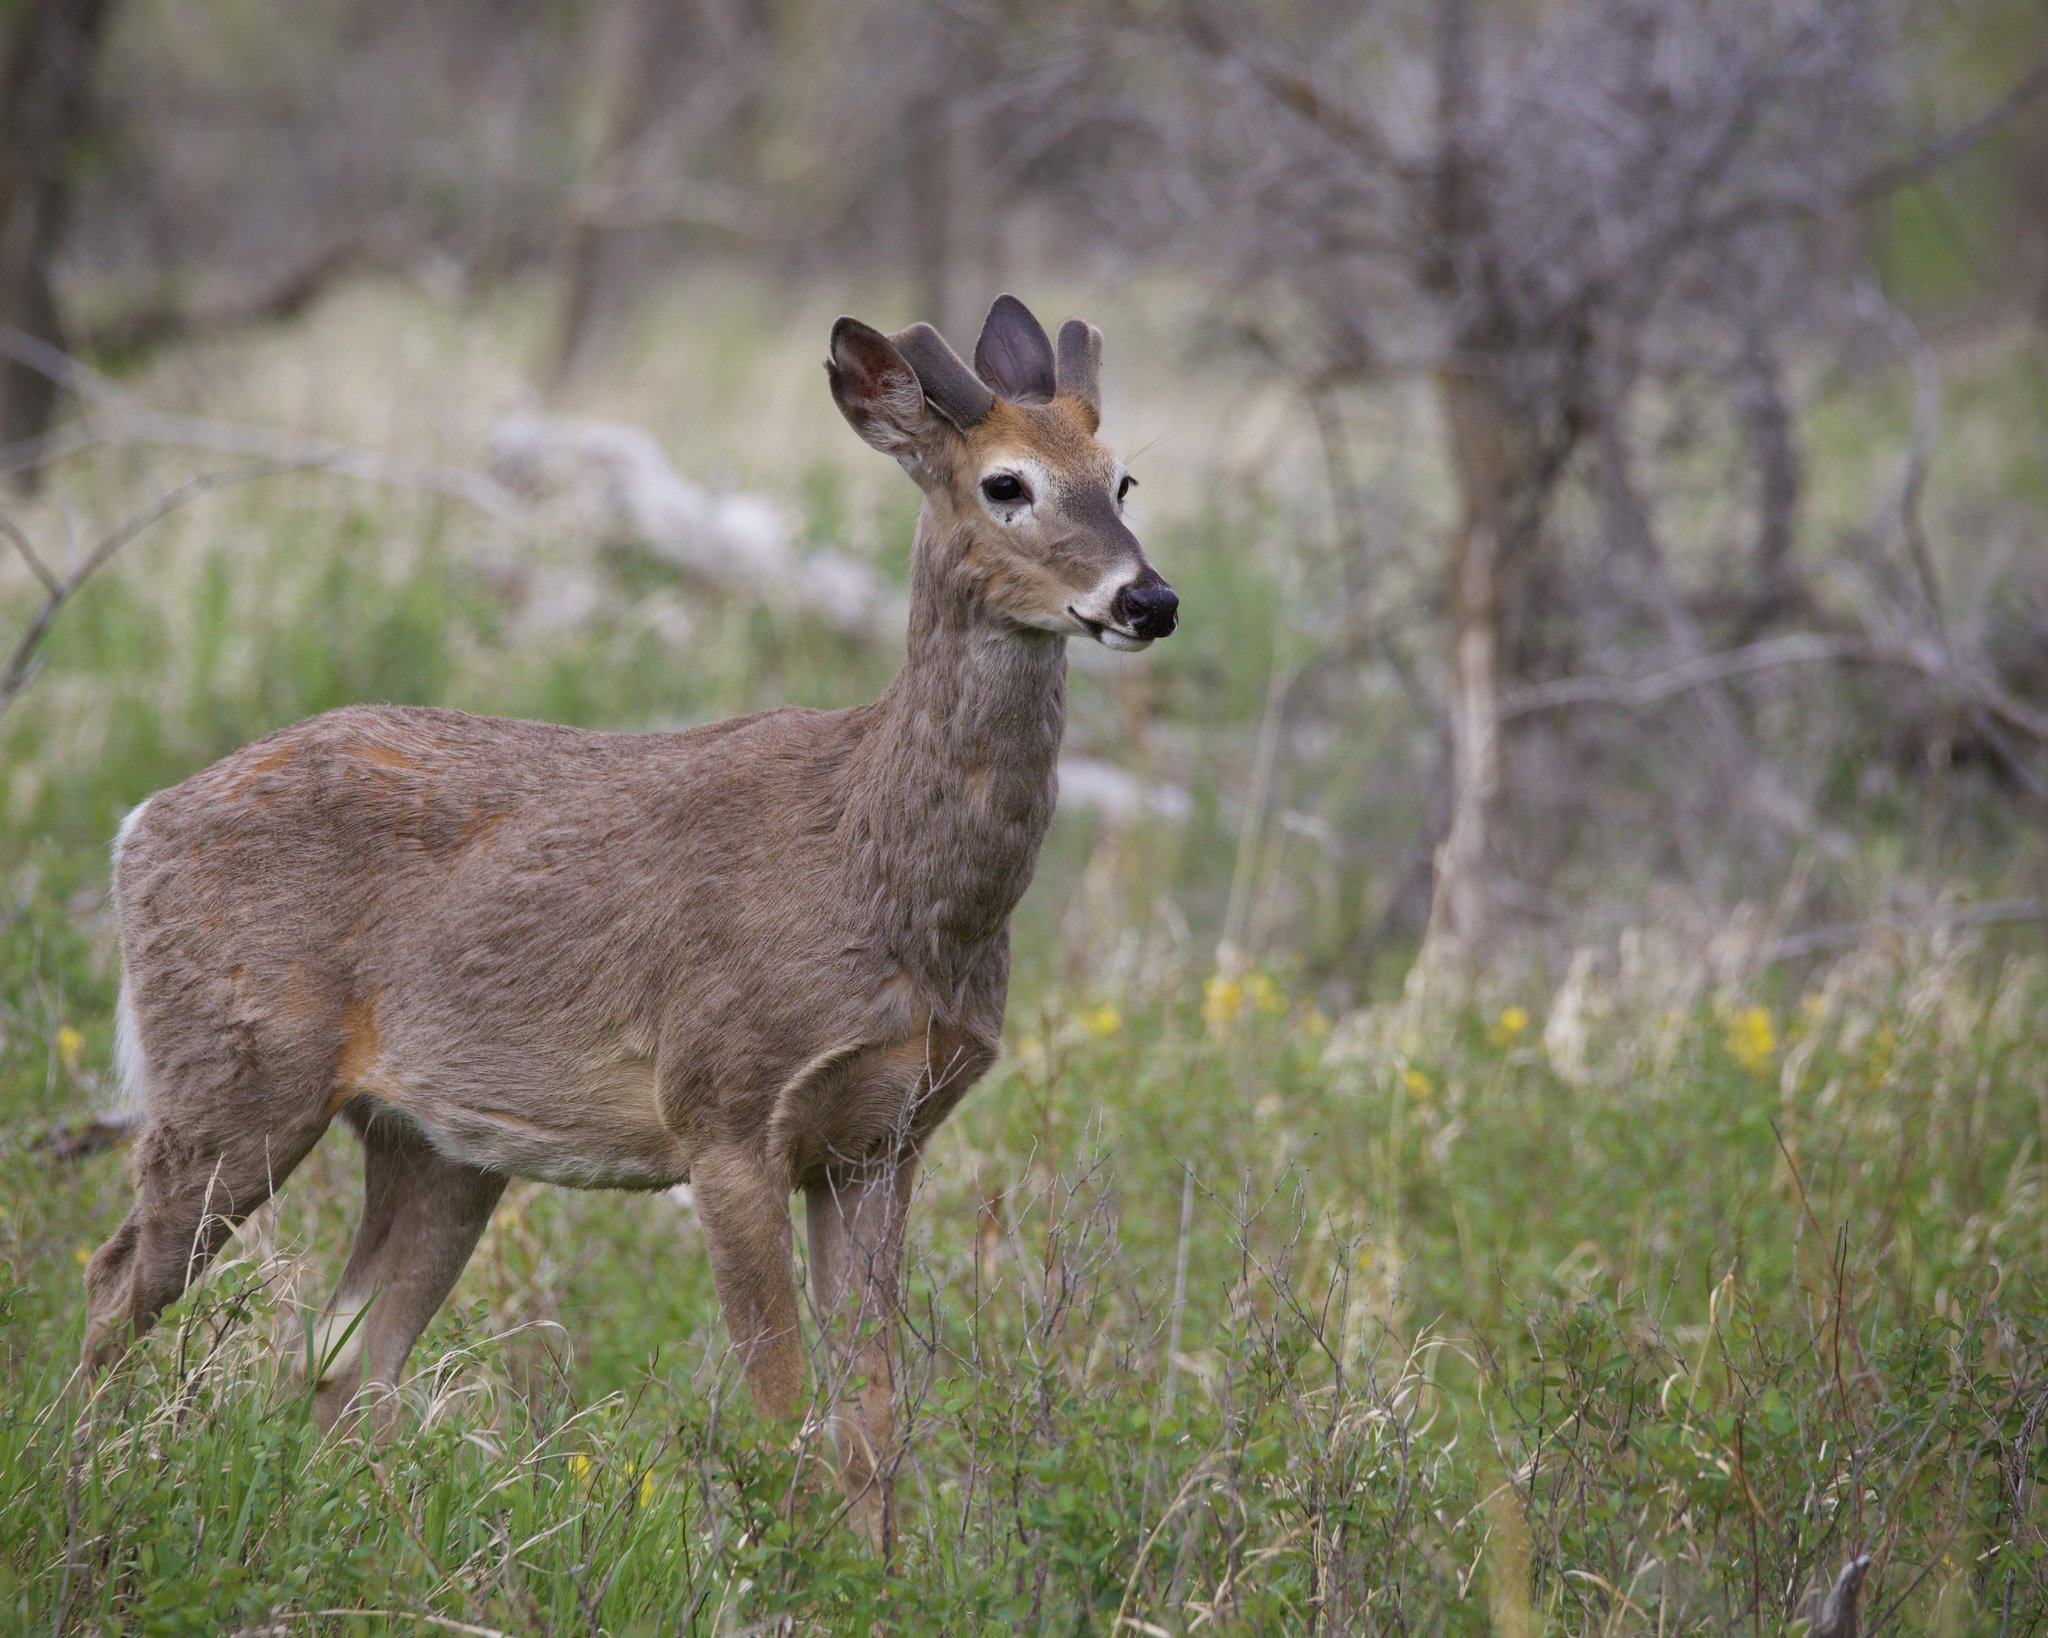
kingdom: Animalia
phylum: Chordata
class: Mammalia
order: Artiodactyla
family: Cervidae
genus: Odocoileus
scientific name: Odocoileus virginianus
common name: White-tailed deer
